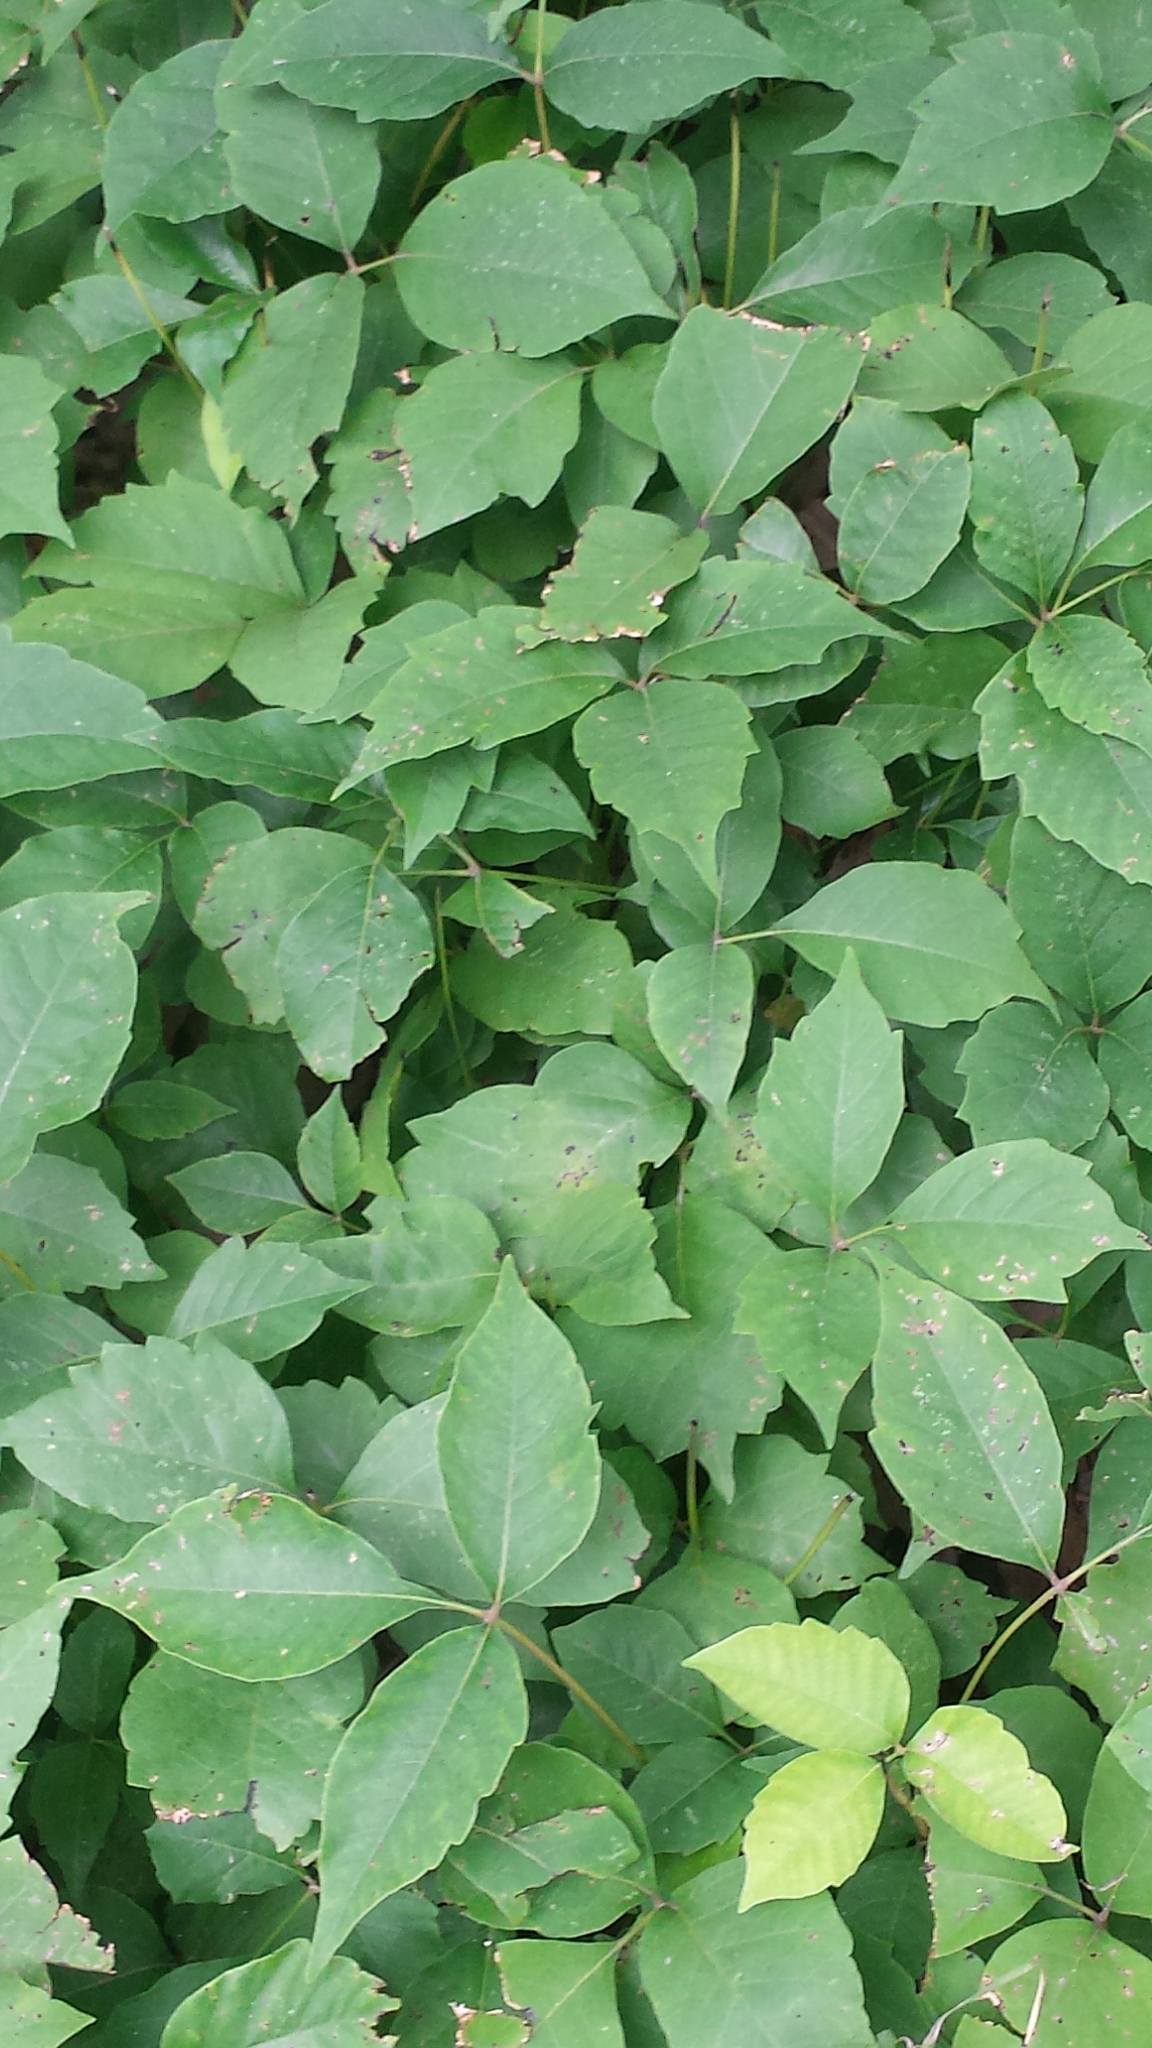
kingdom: Plantae
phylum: Tracheophyta
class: Magnoliopsida
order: Sapindales
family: Anacardiaceae
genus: Toxicodendron
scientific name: Toxicodendron radicans
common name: Poison ivy
